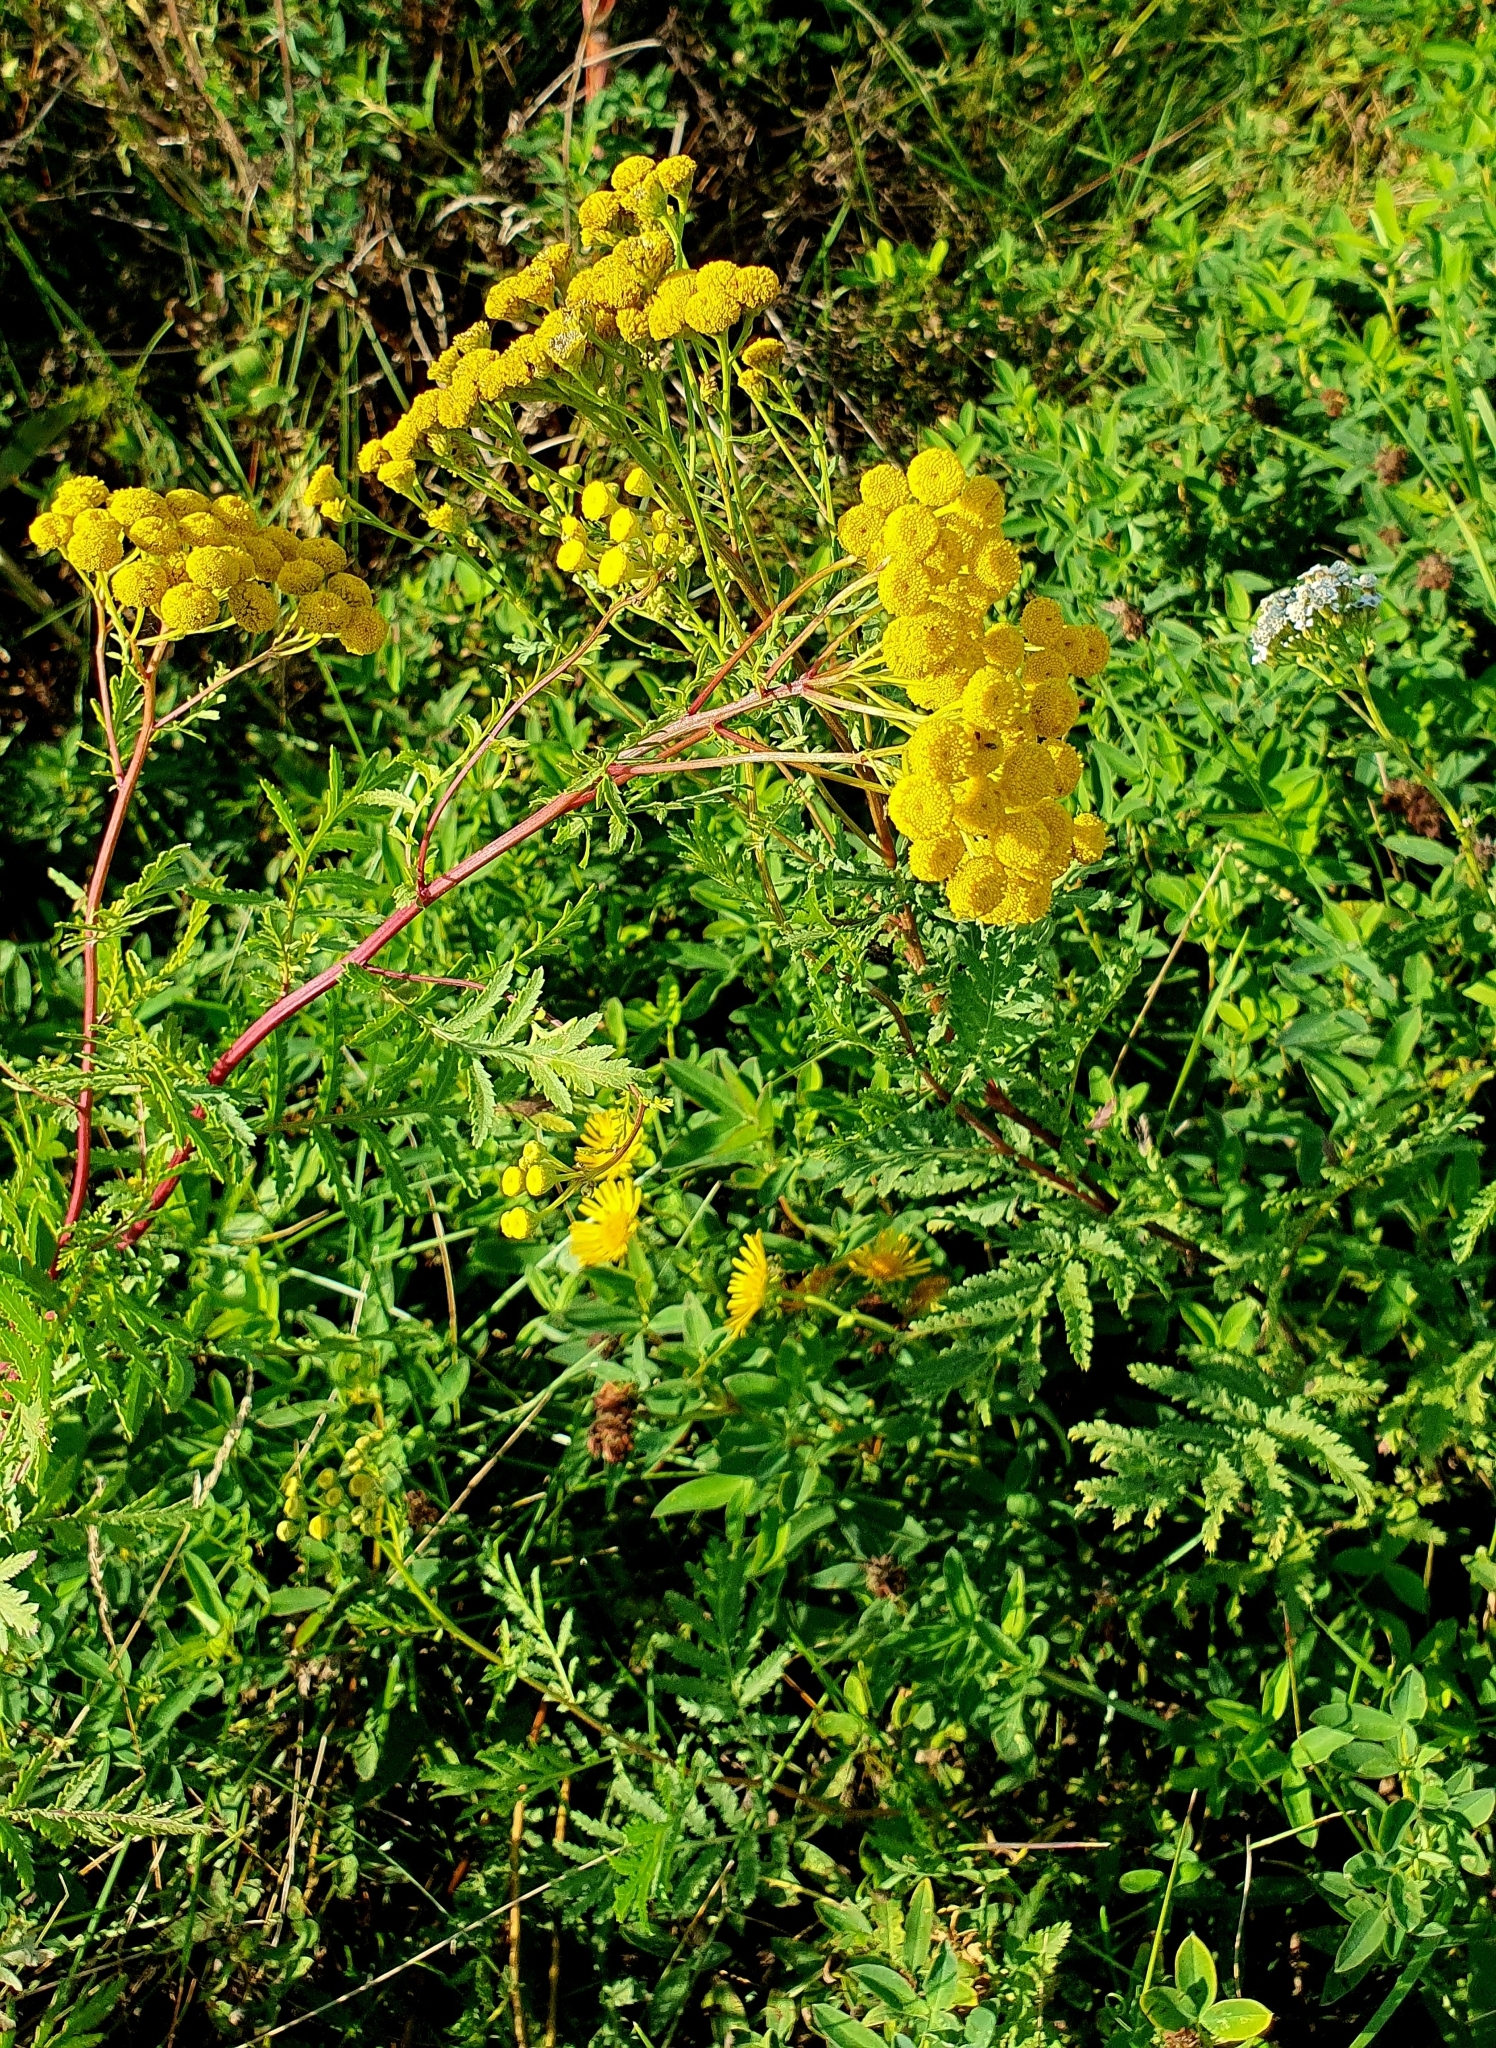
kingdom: Plantae
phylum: Tracheophyta
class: Magnoliopsida
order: Asterales
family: Asteraceae
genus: Tanacetum
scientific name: Tanacetum vulgare
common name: Common tansy
